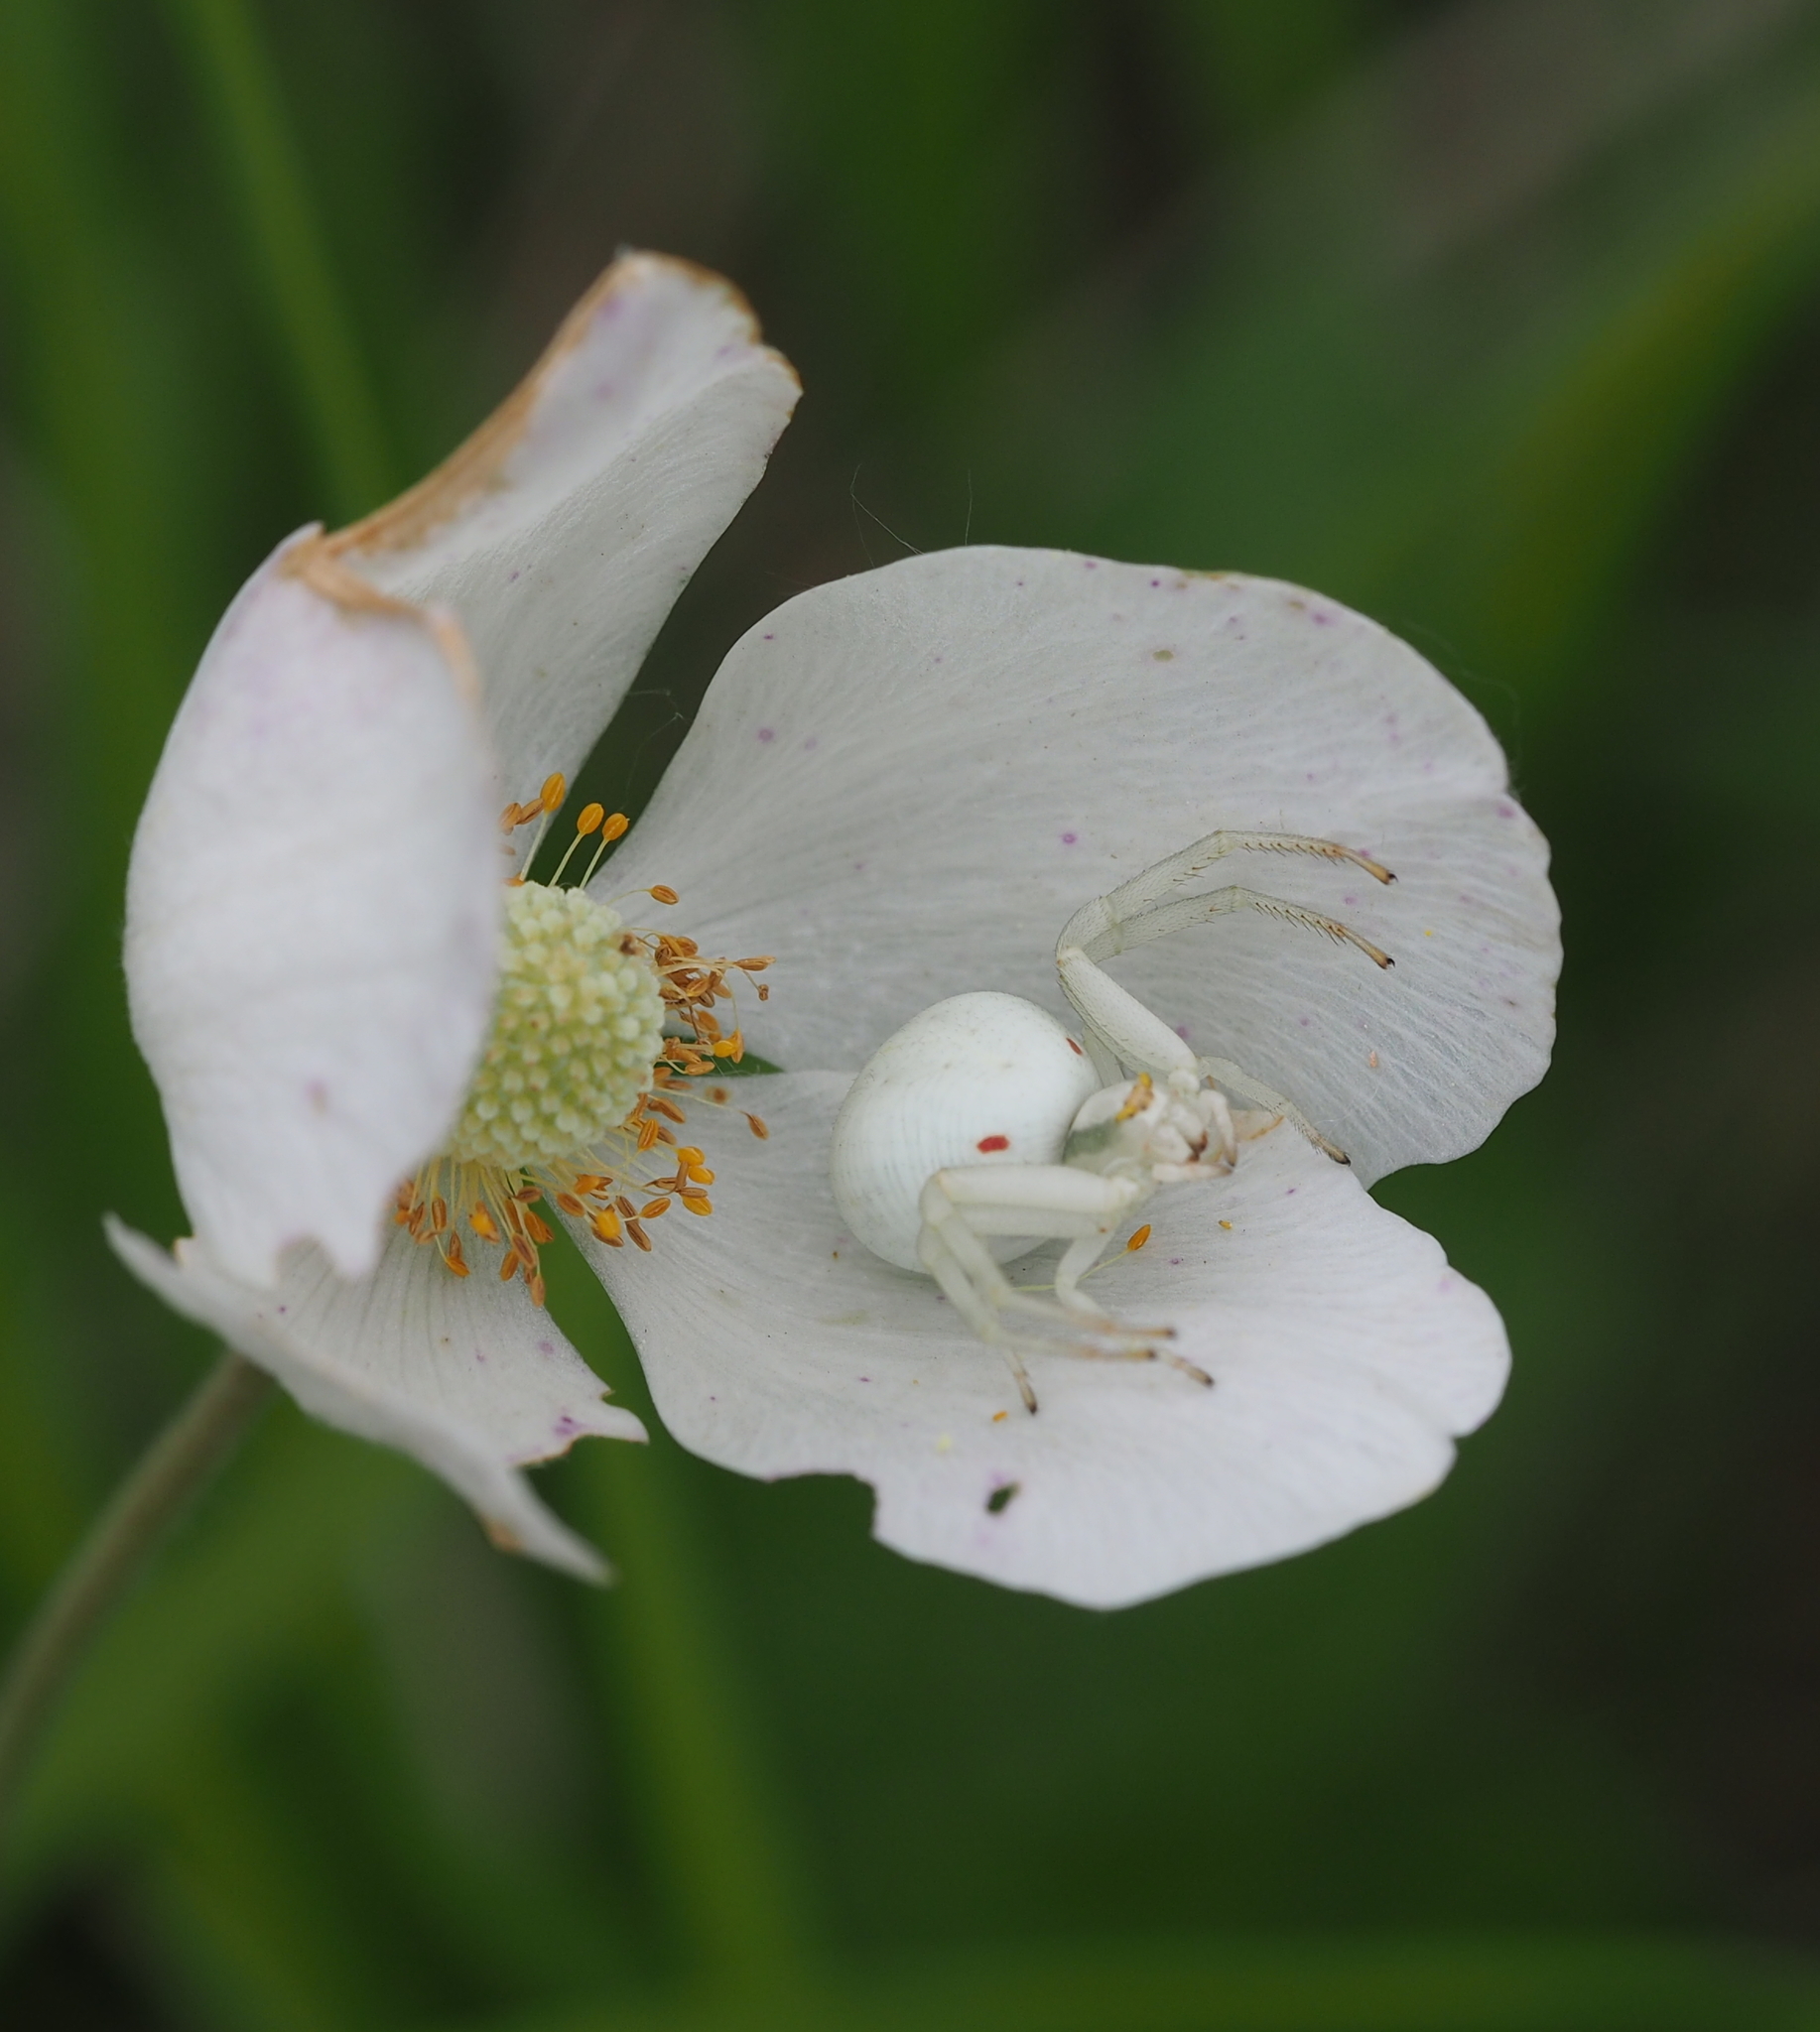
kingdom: Animalia
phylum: Arthropoda
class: Arachnida
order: Araneae
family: Thomisidae
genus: Misumena
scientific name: Misumena vatia
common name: Goldenrod crab spider
